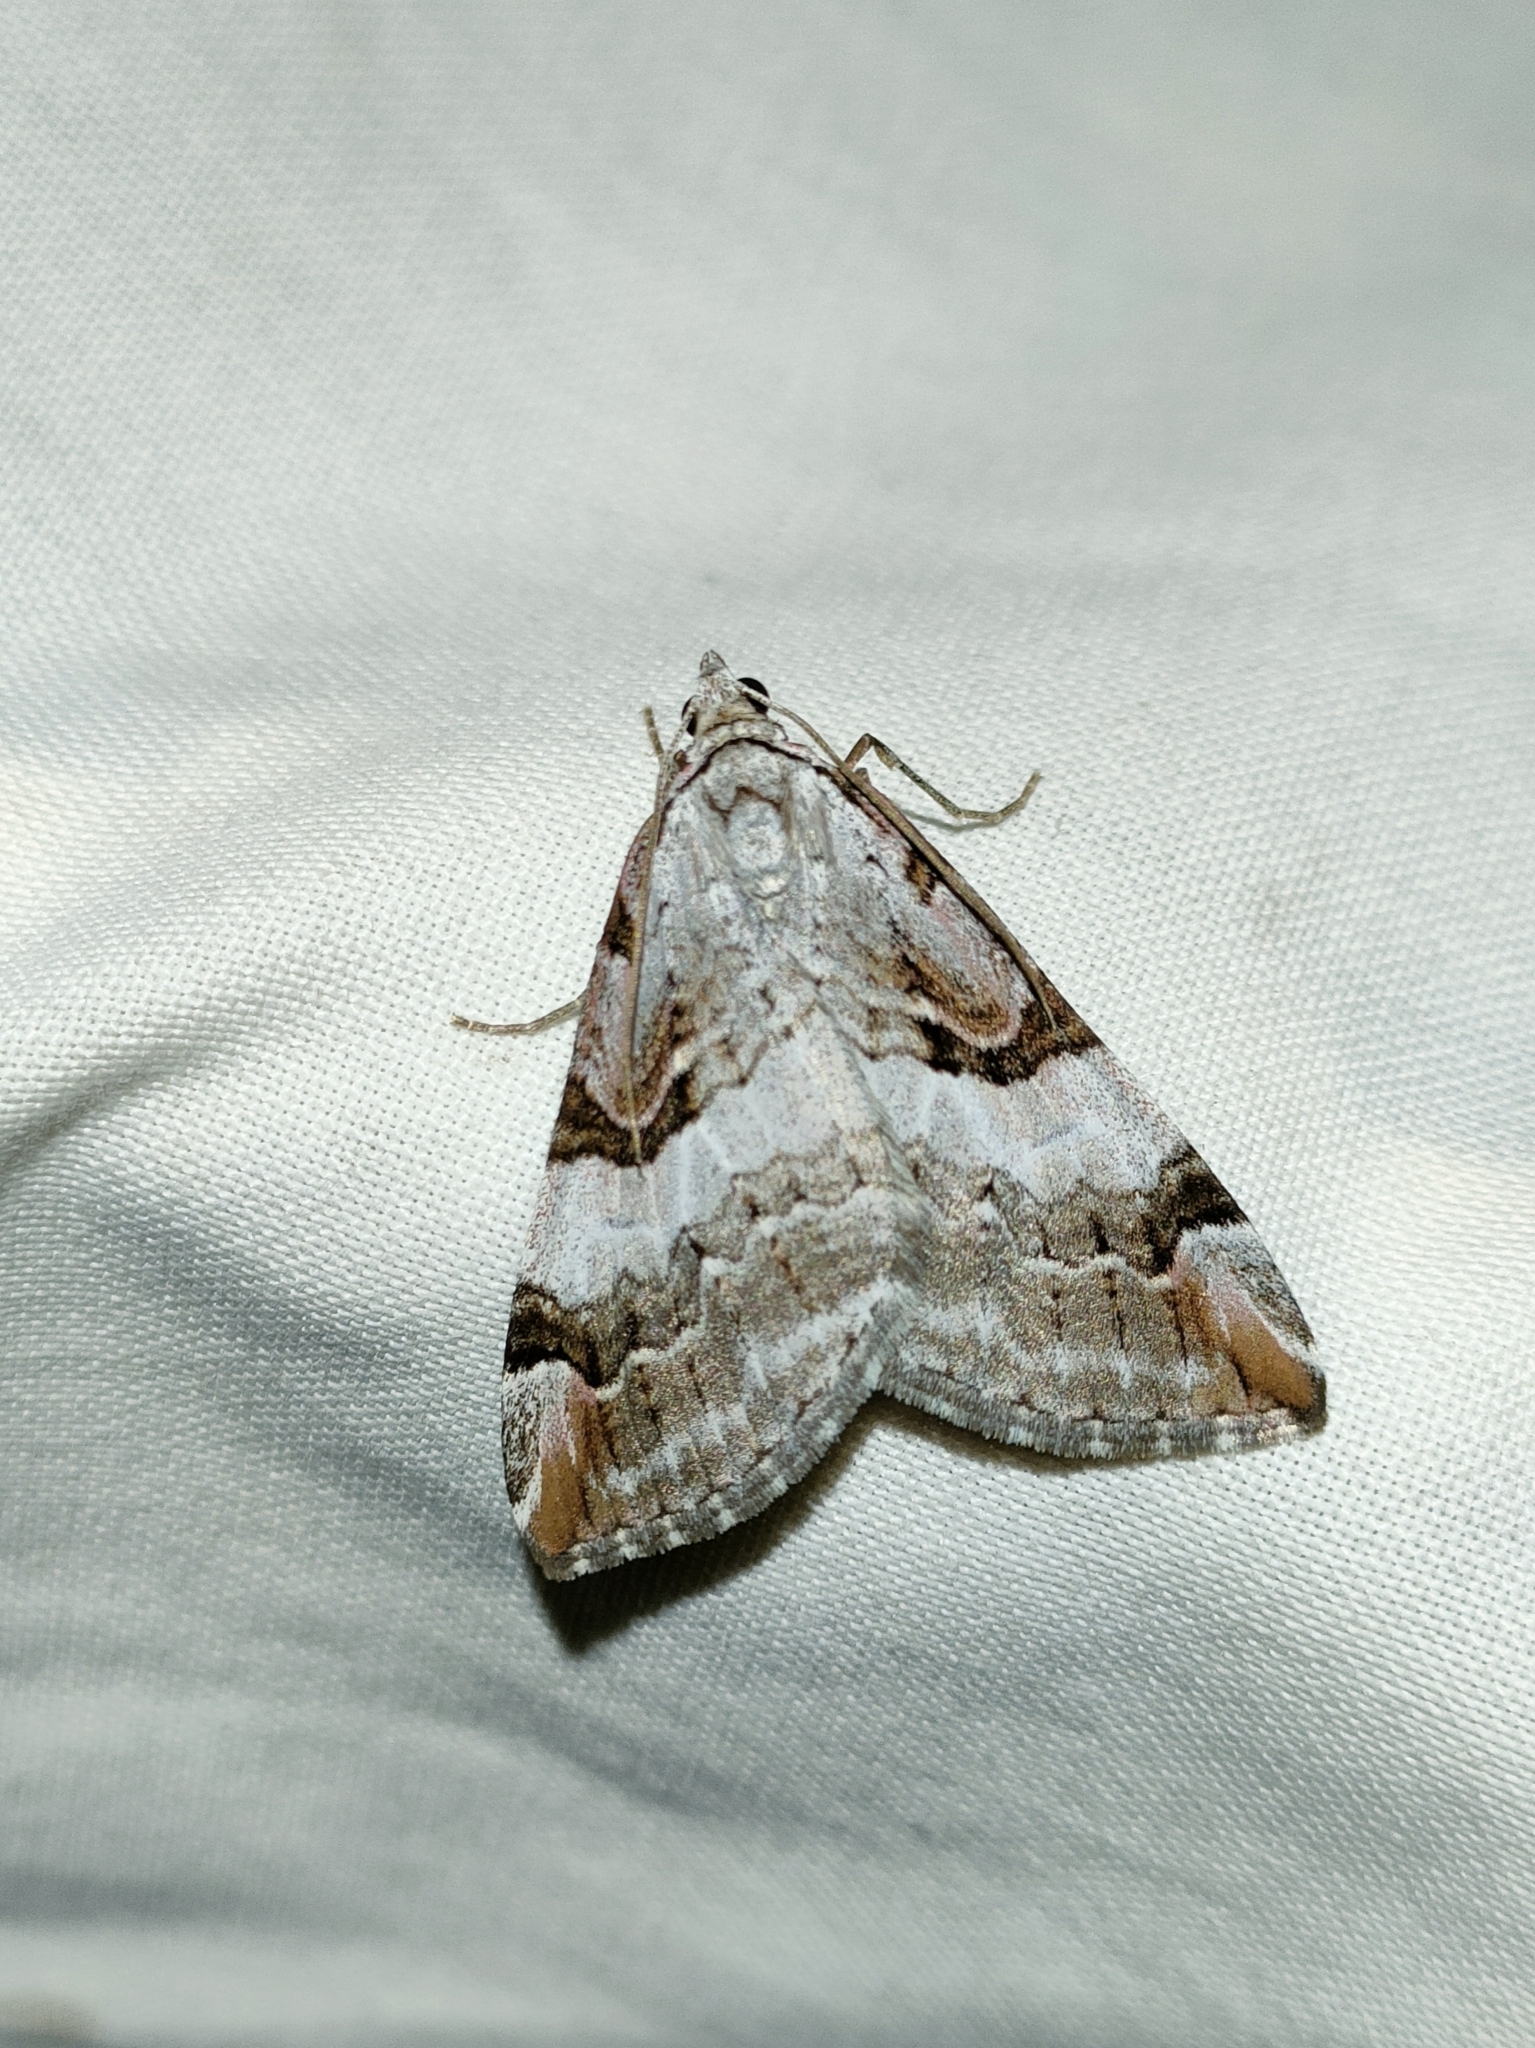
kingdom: Animalia
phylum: Arthropoda
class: Insecta
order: Lepidoptera
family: Geometridae
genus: Aplocera
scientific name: Aplocera praeformata
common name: Purple treble-bar
